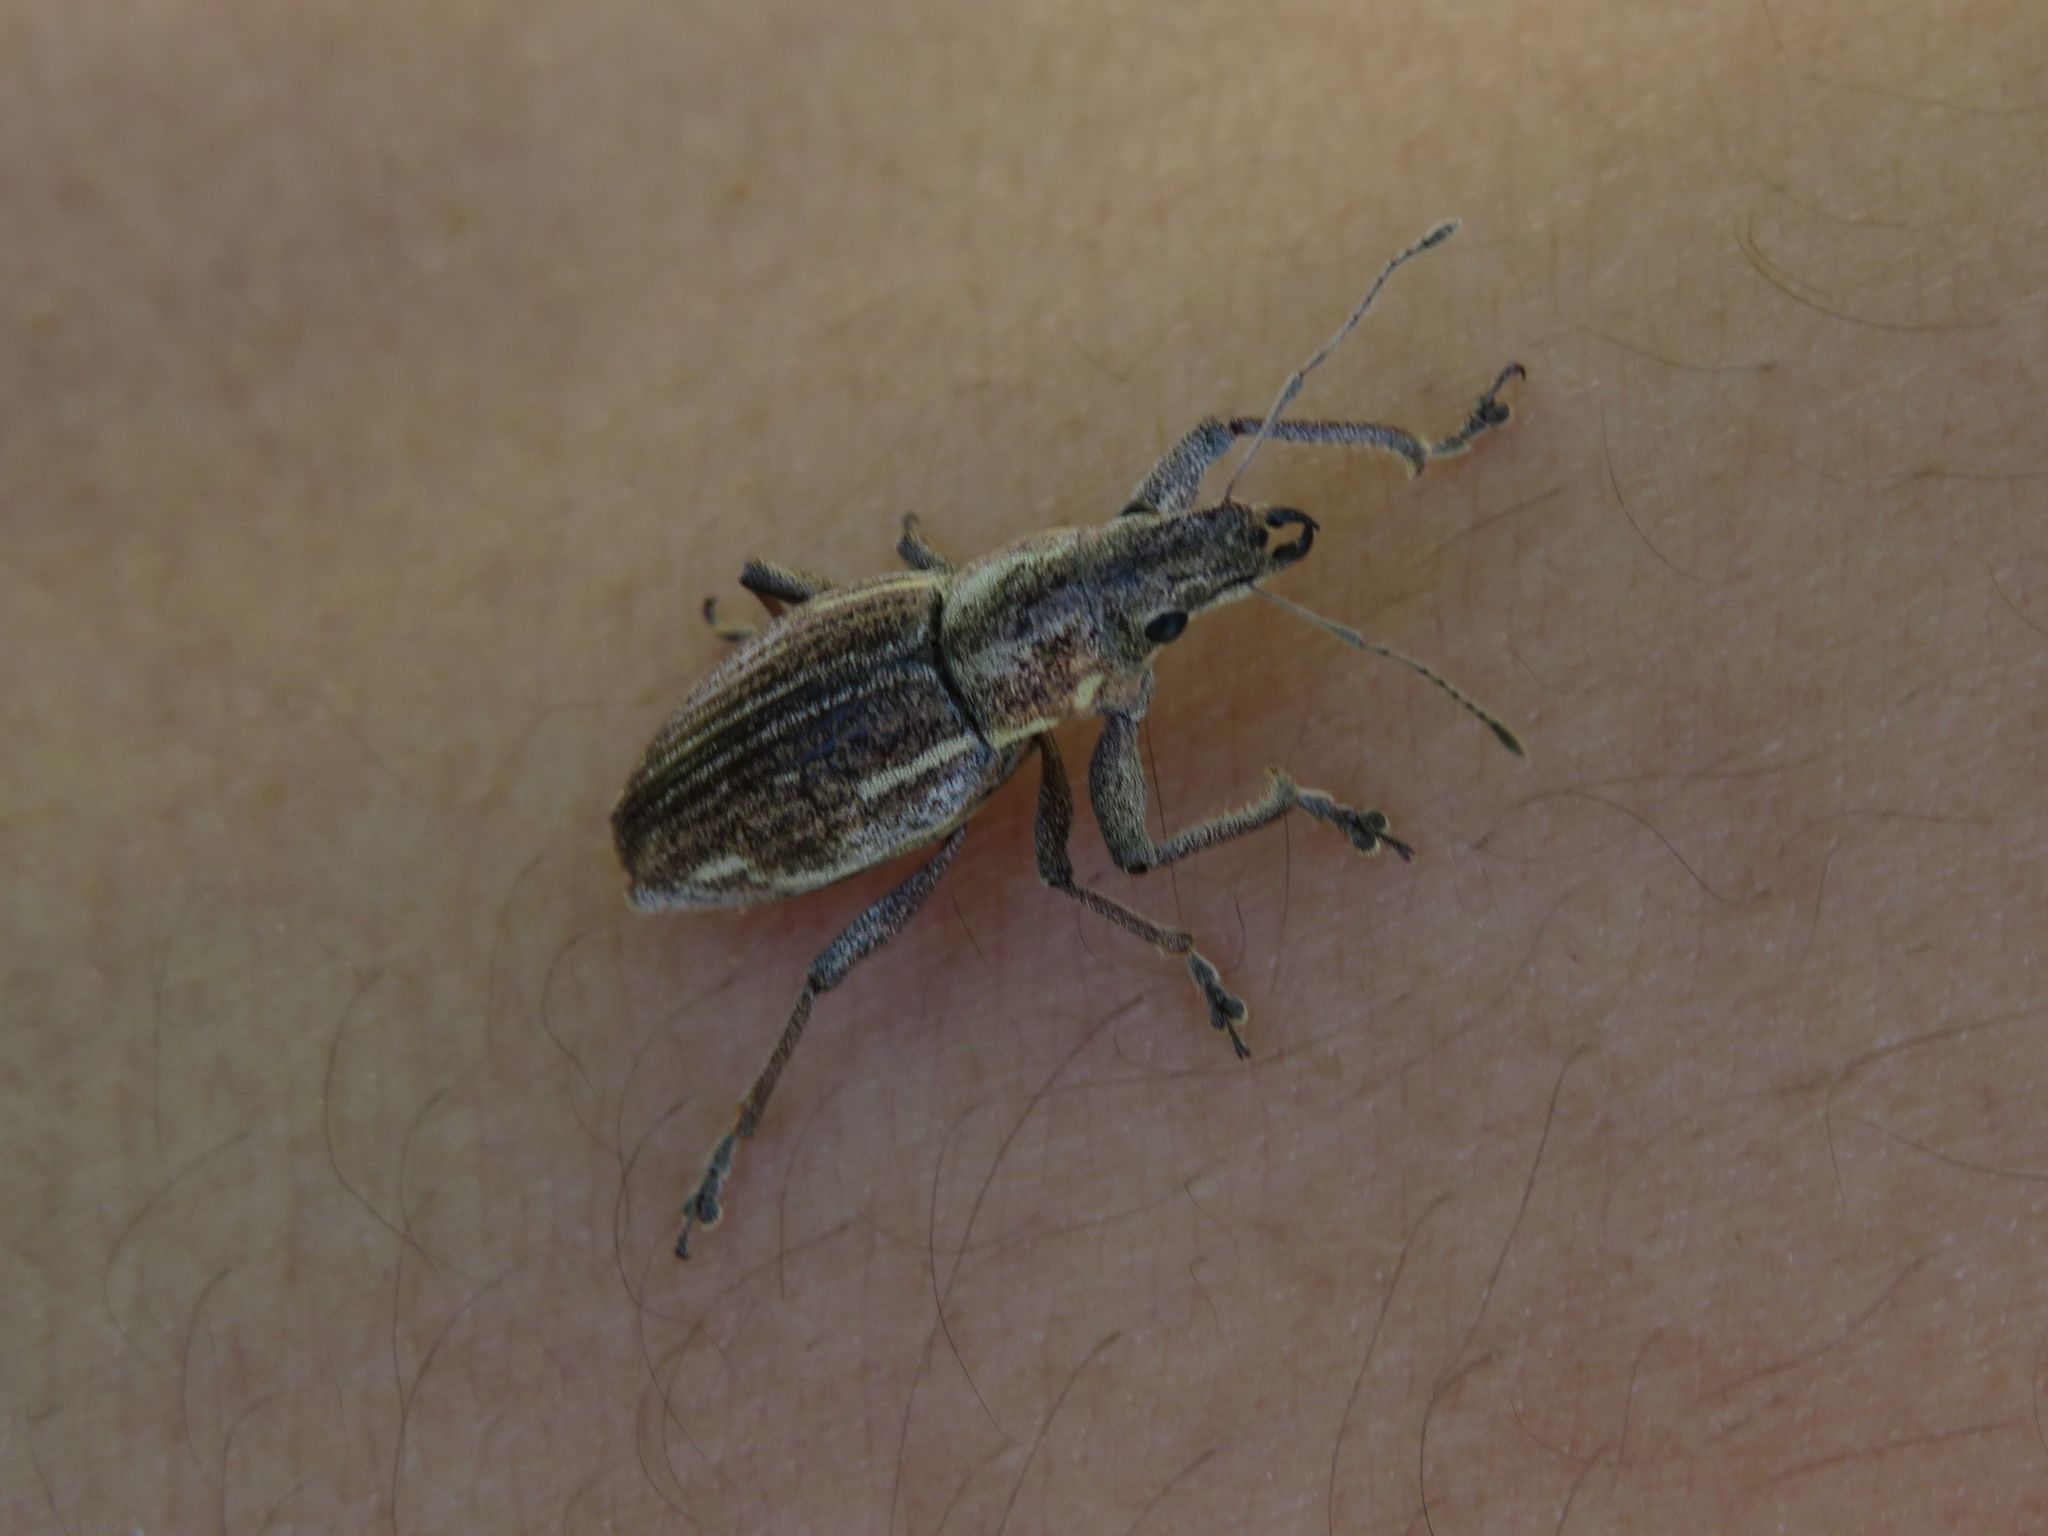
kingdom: Animalia
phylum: Arthropoda
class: Insecta
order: Coleoptera
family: Curculionidae
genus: Naupactus
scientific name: Naupactus leucoloma
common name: Whitefringed beetle
